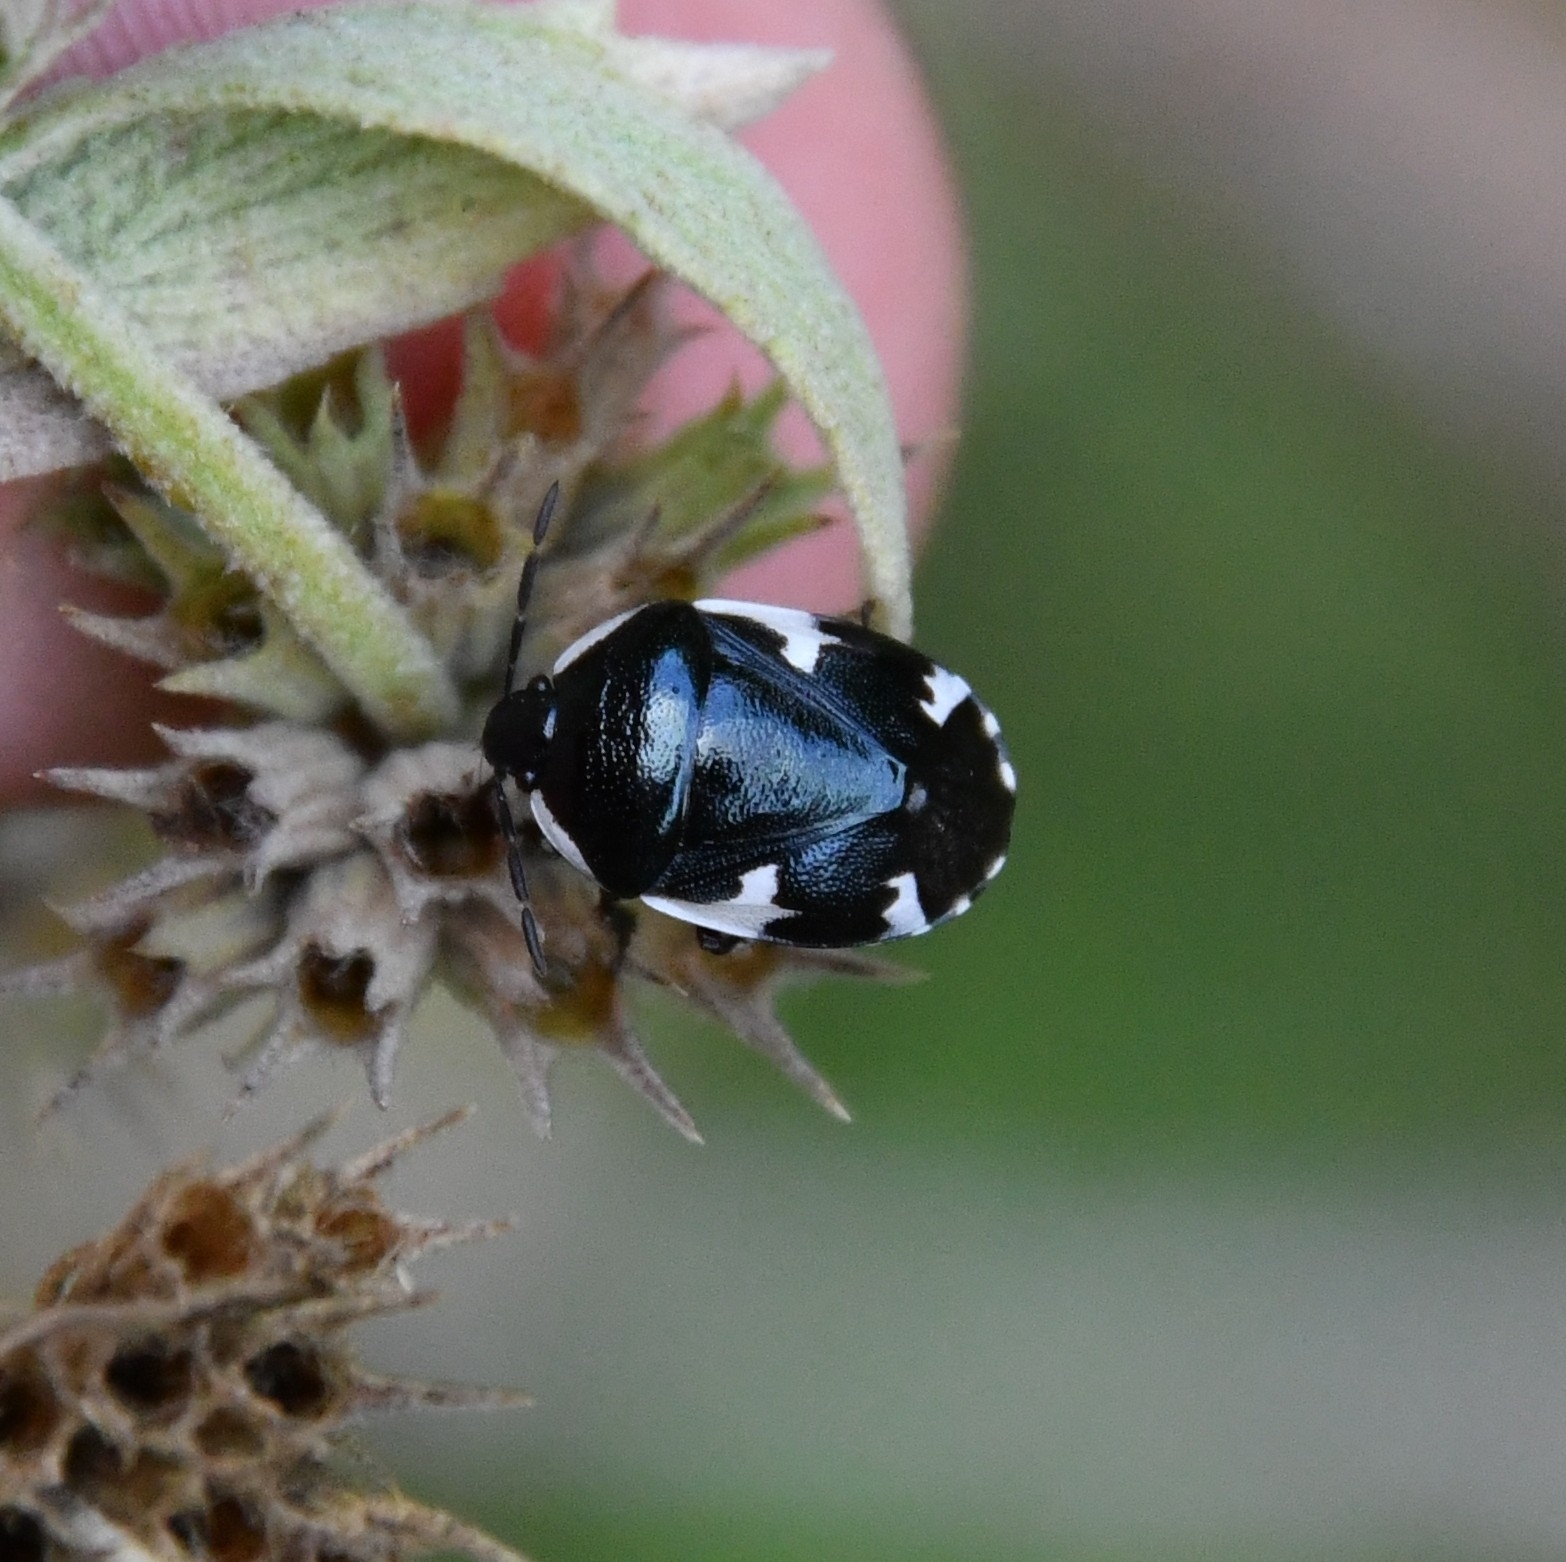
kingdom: Animalia
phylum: Arthropoda
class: Insecta
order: Hemiptera
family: Cydnidae
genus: Tritomegas
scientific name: Tritomegas sexmaculatus
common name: Rambur's pied shieldbug
